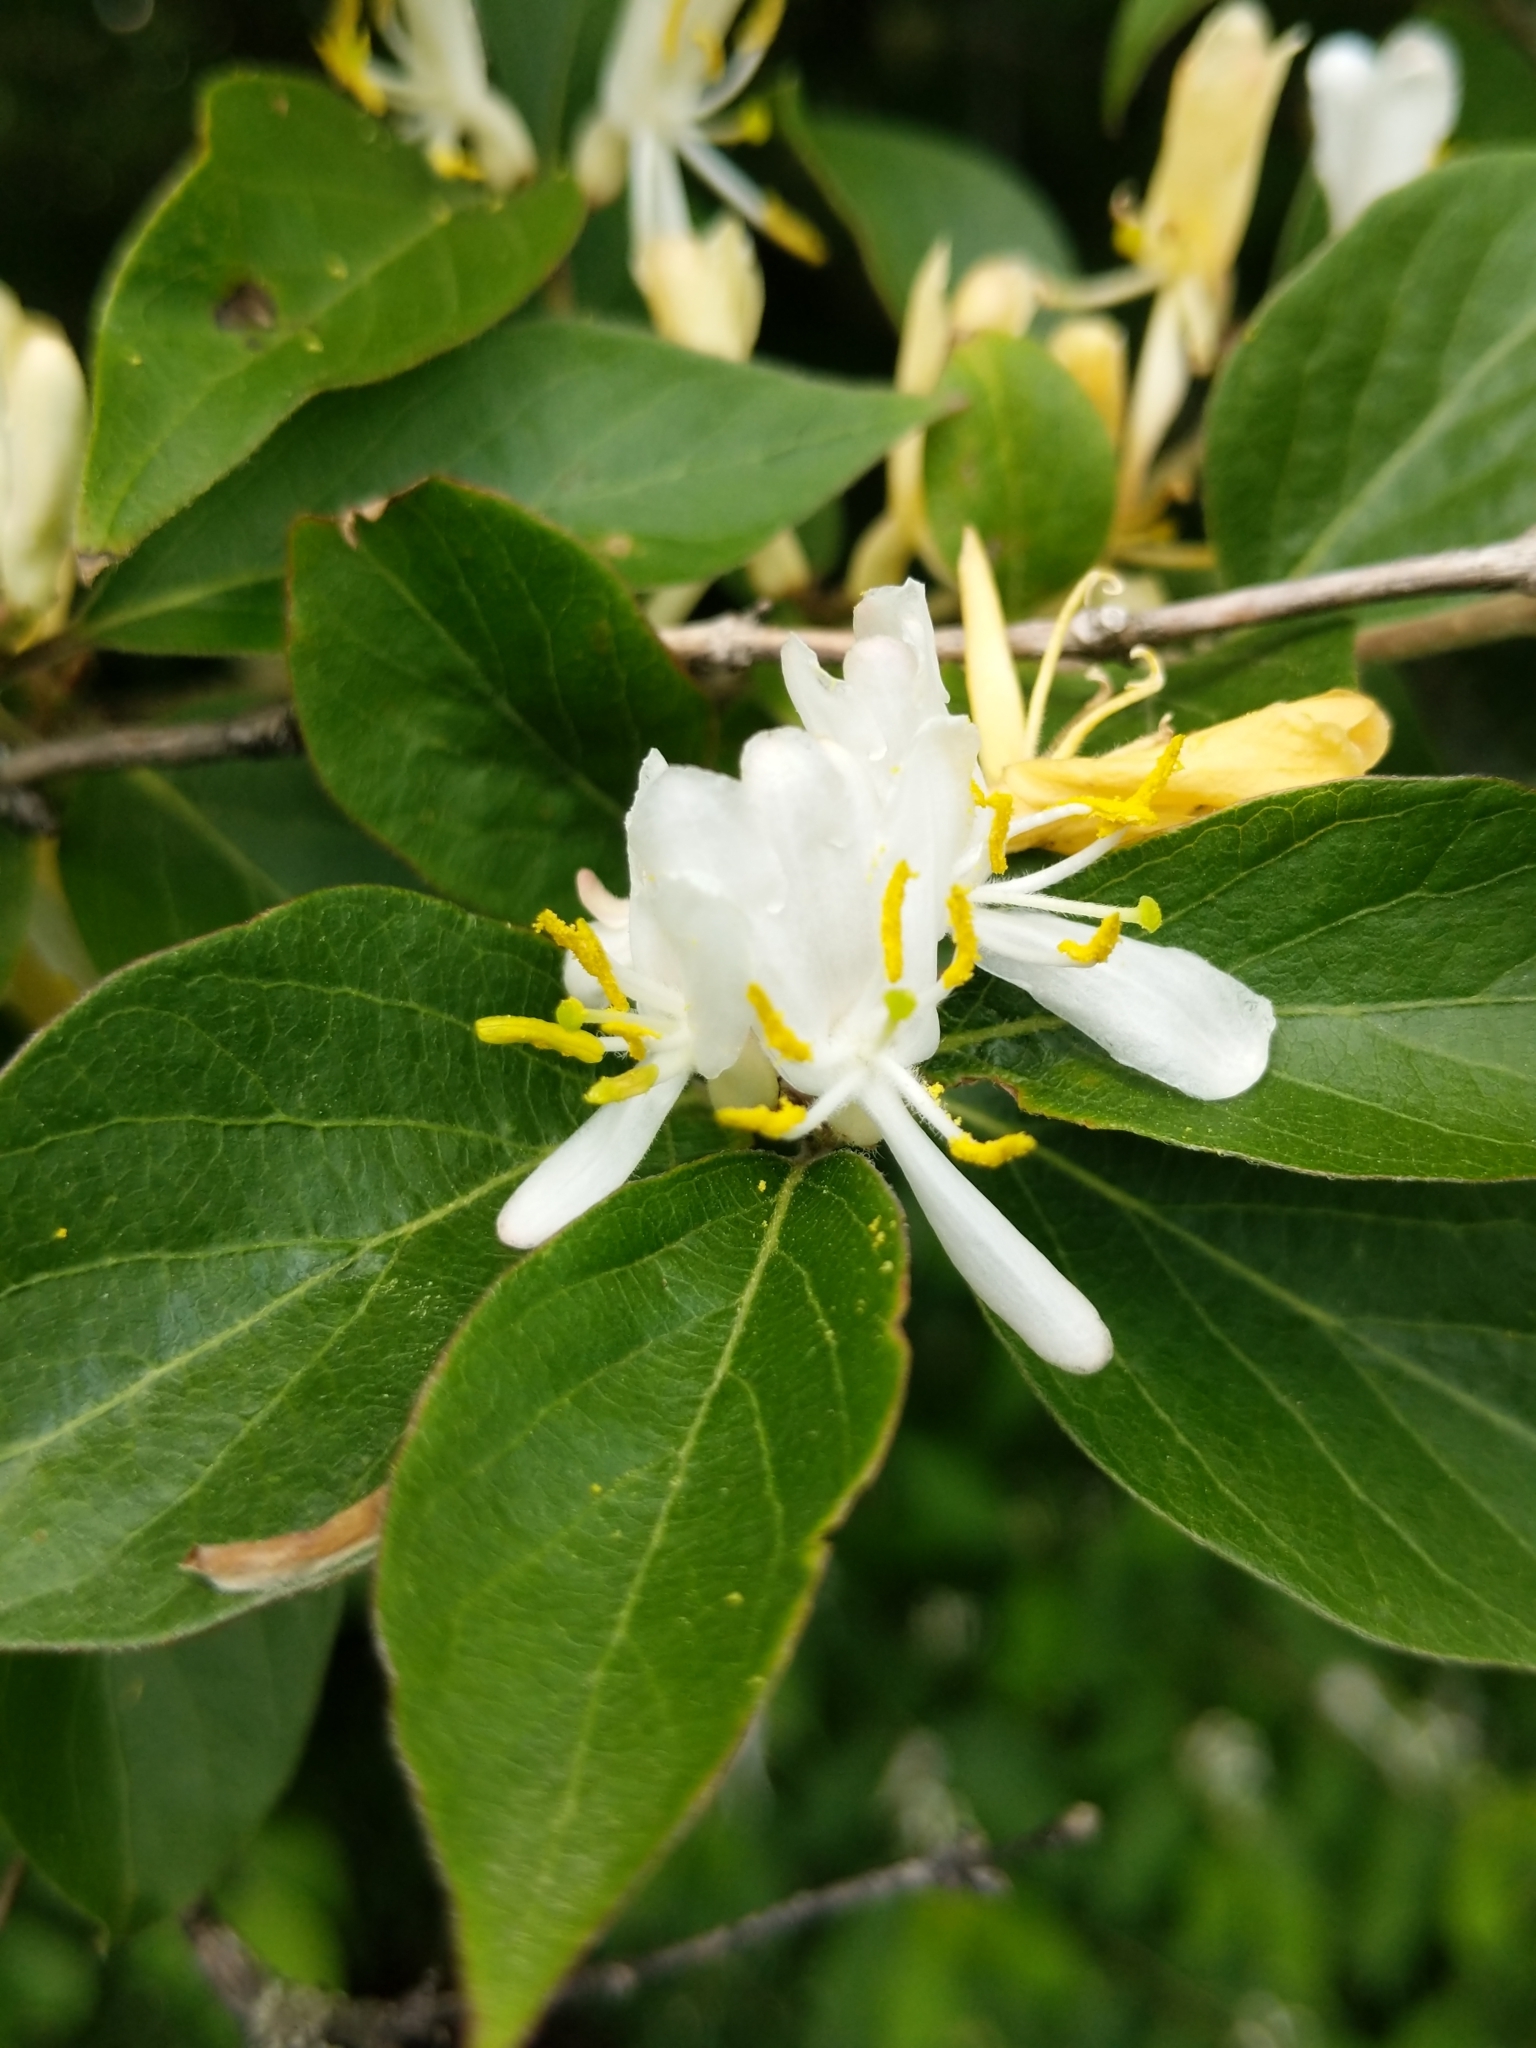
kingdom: Plantae
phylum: Tracheophyta
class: Magnoliopsida
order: Dipsacales
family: Caprifoliaceae
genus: Lonicera
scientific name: Lonicera maackii
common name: Amur honeysuckle
